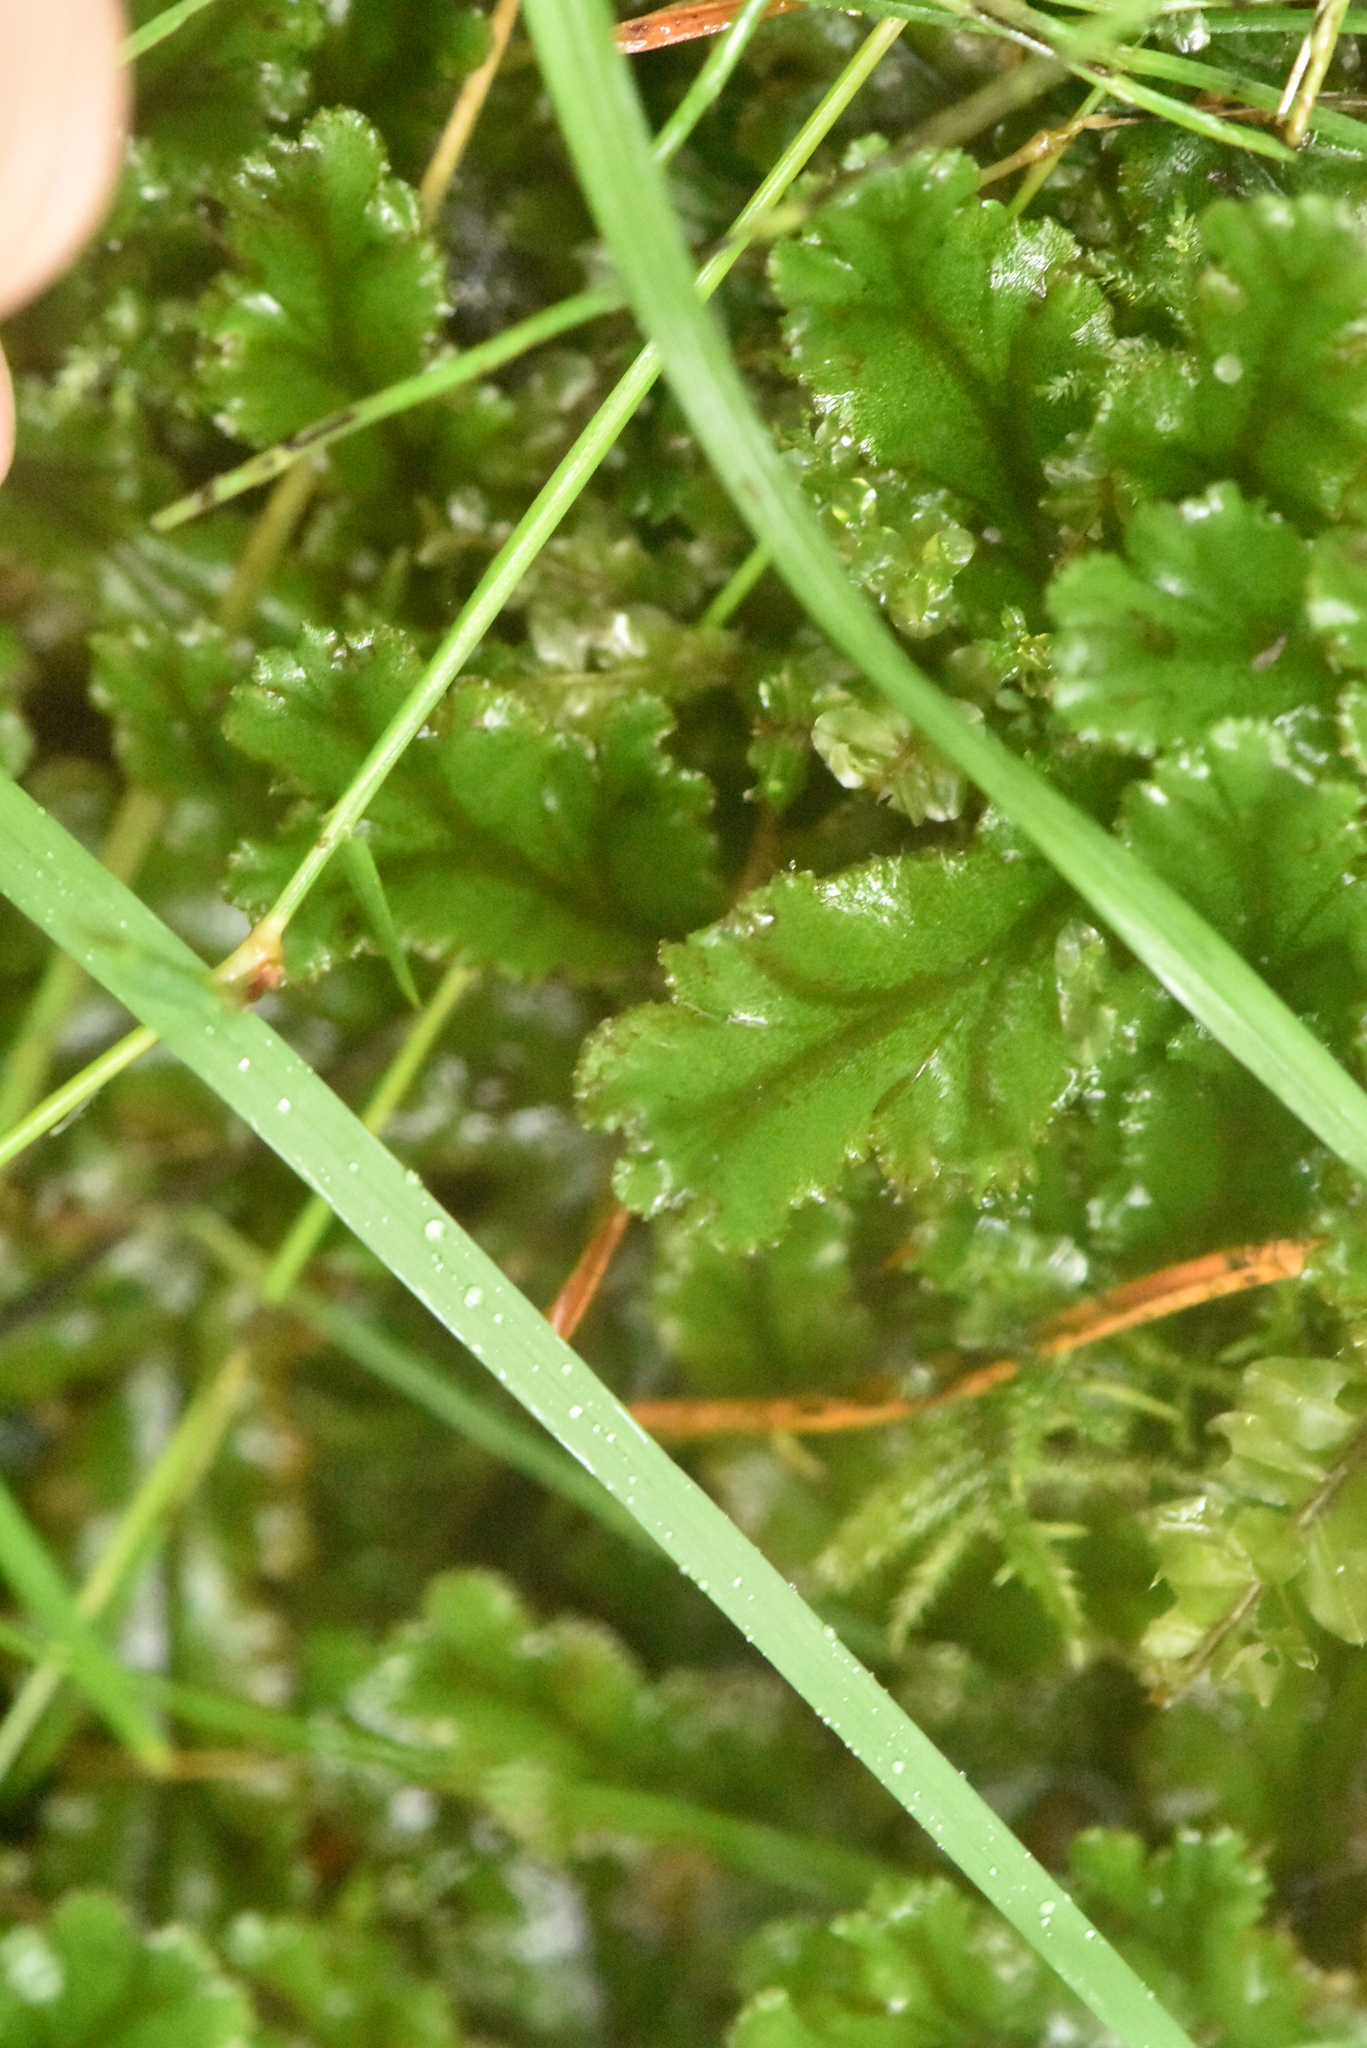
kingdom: Plantae
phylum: Marchantiophyta
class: Marchantiopsida
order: Marchantiales
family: Marchantiaceae
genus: Marchantia
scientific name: Marchantia polymorpha
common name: Common liverwort
